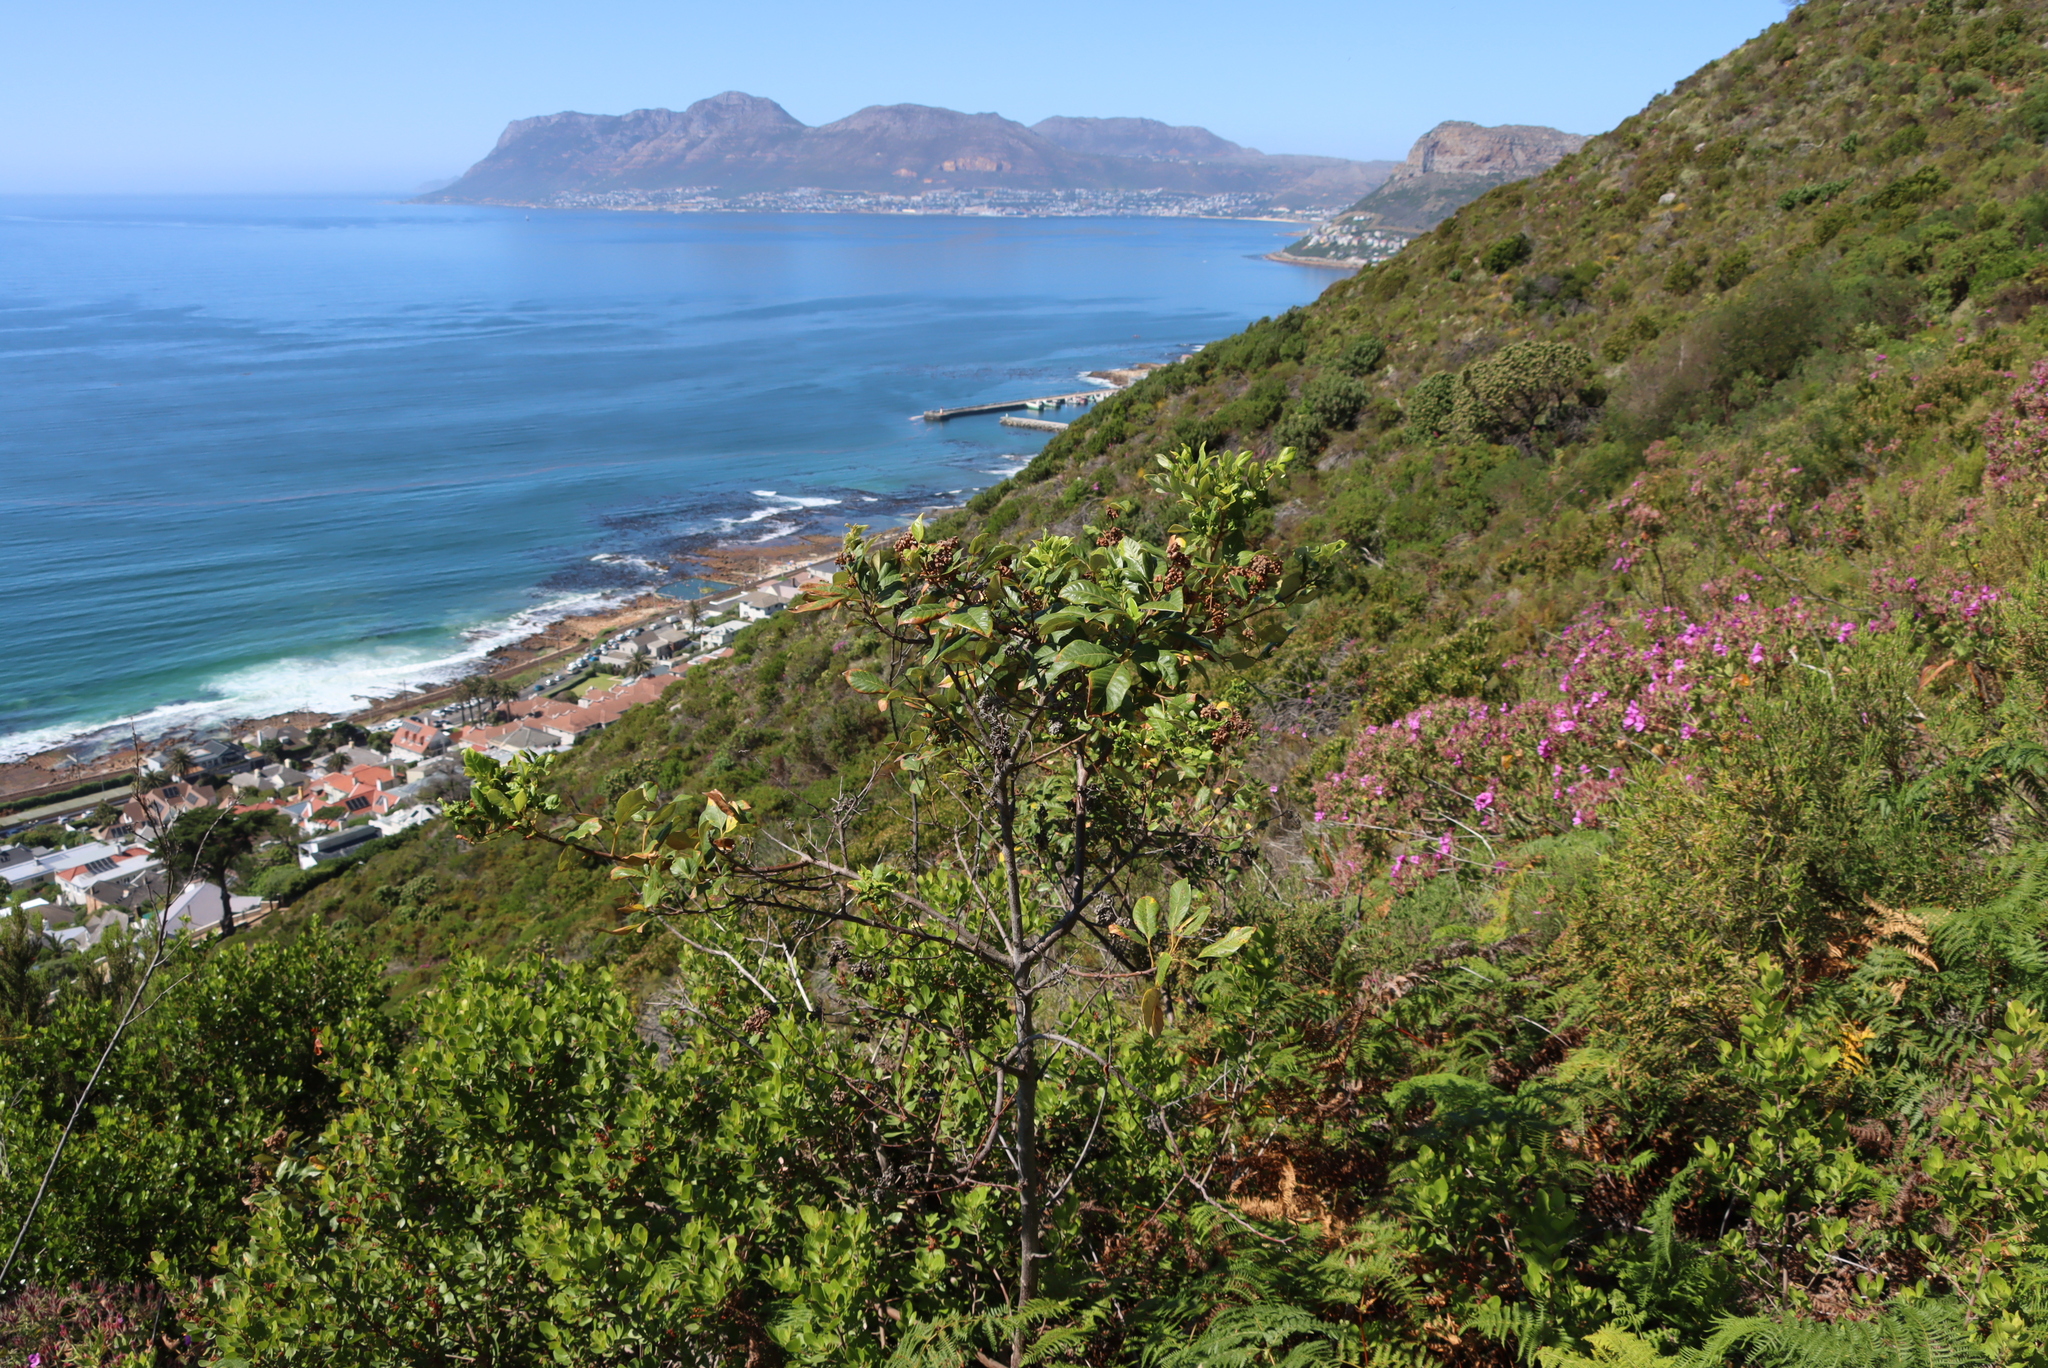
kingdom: Plantae
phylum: Tracheophyta
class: Magnoliopsida
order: Sapindales
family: Anacardiaceae
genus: Searsia
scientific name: Searsia tomentosa
